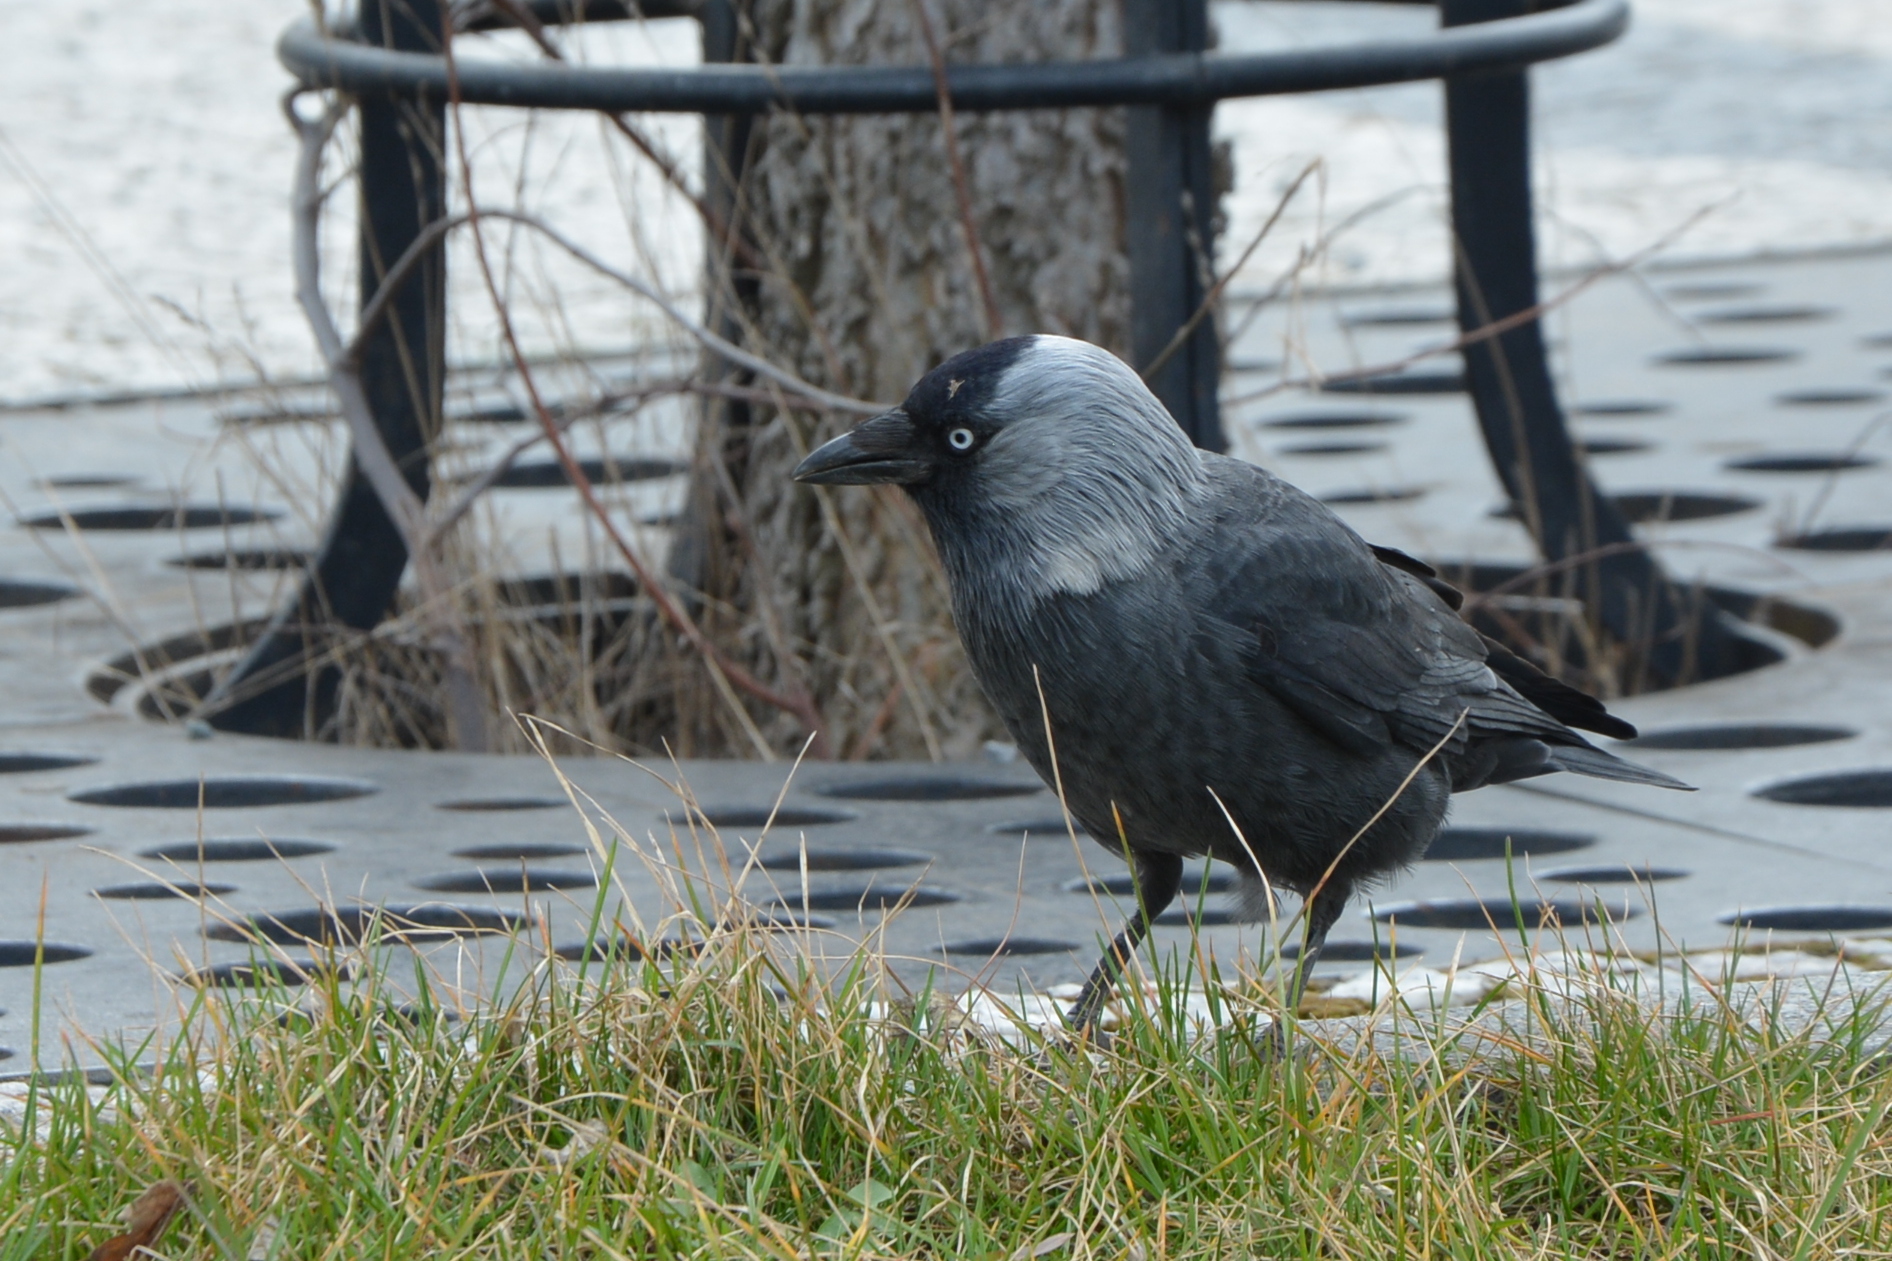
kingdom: Animalia
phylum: Chordata
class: Aves
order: Passeriformes
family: Corvidae
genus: Coloeus
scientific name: Coloeus monedula
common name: Western jackdaw
